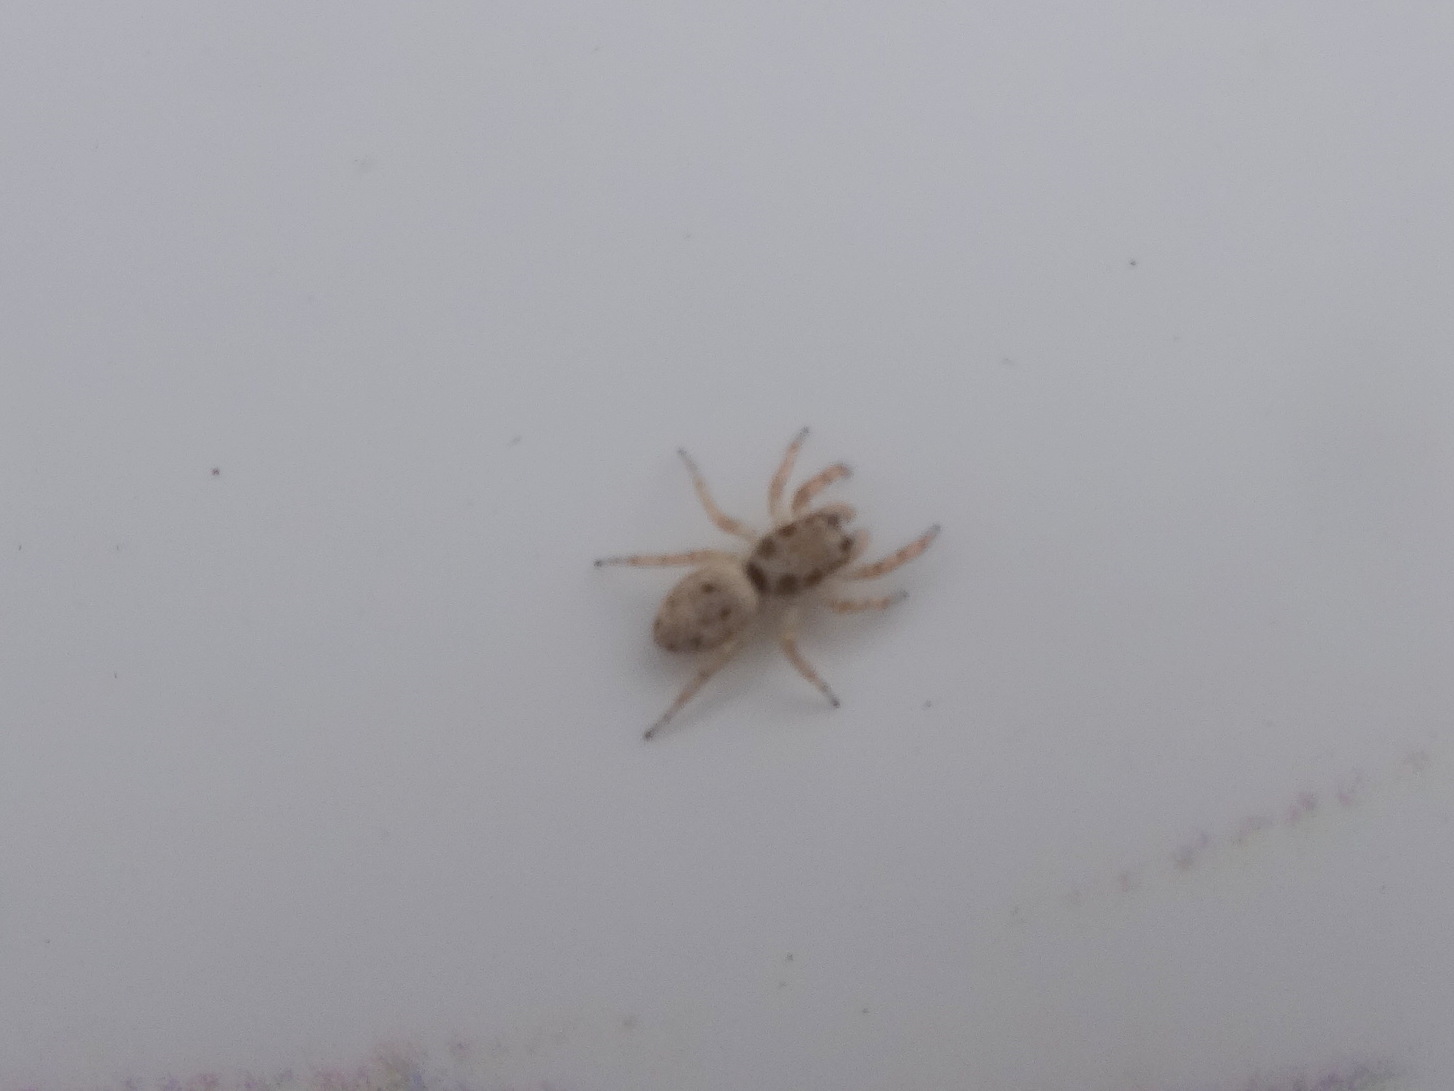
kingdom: Animalia
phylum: Arthropoda
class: Arachnida
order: Araneae
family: Salticidae
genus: Salticus
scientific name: Salticus mutabilis
